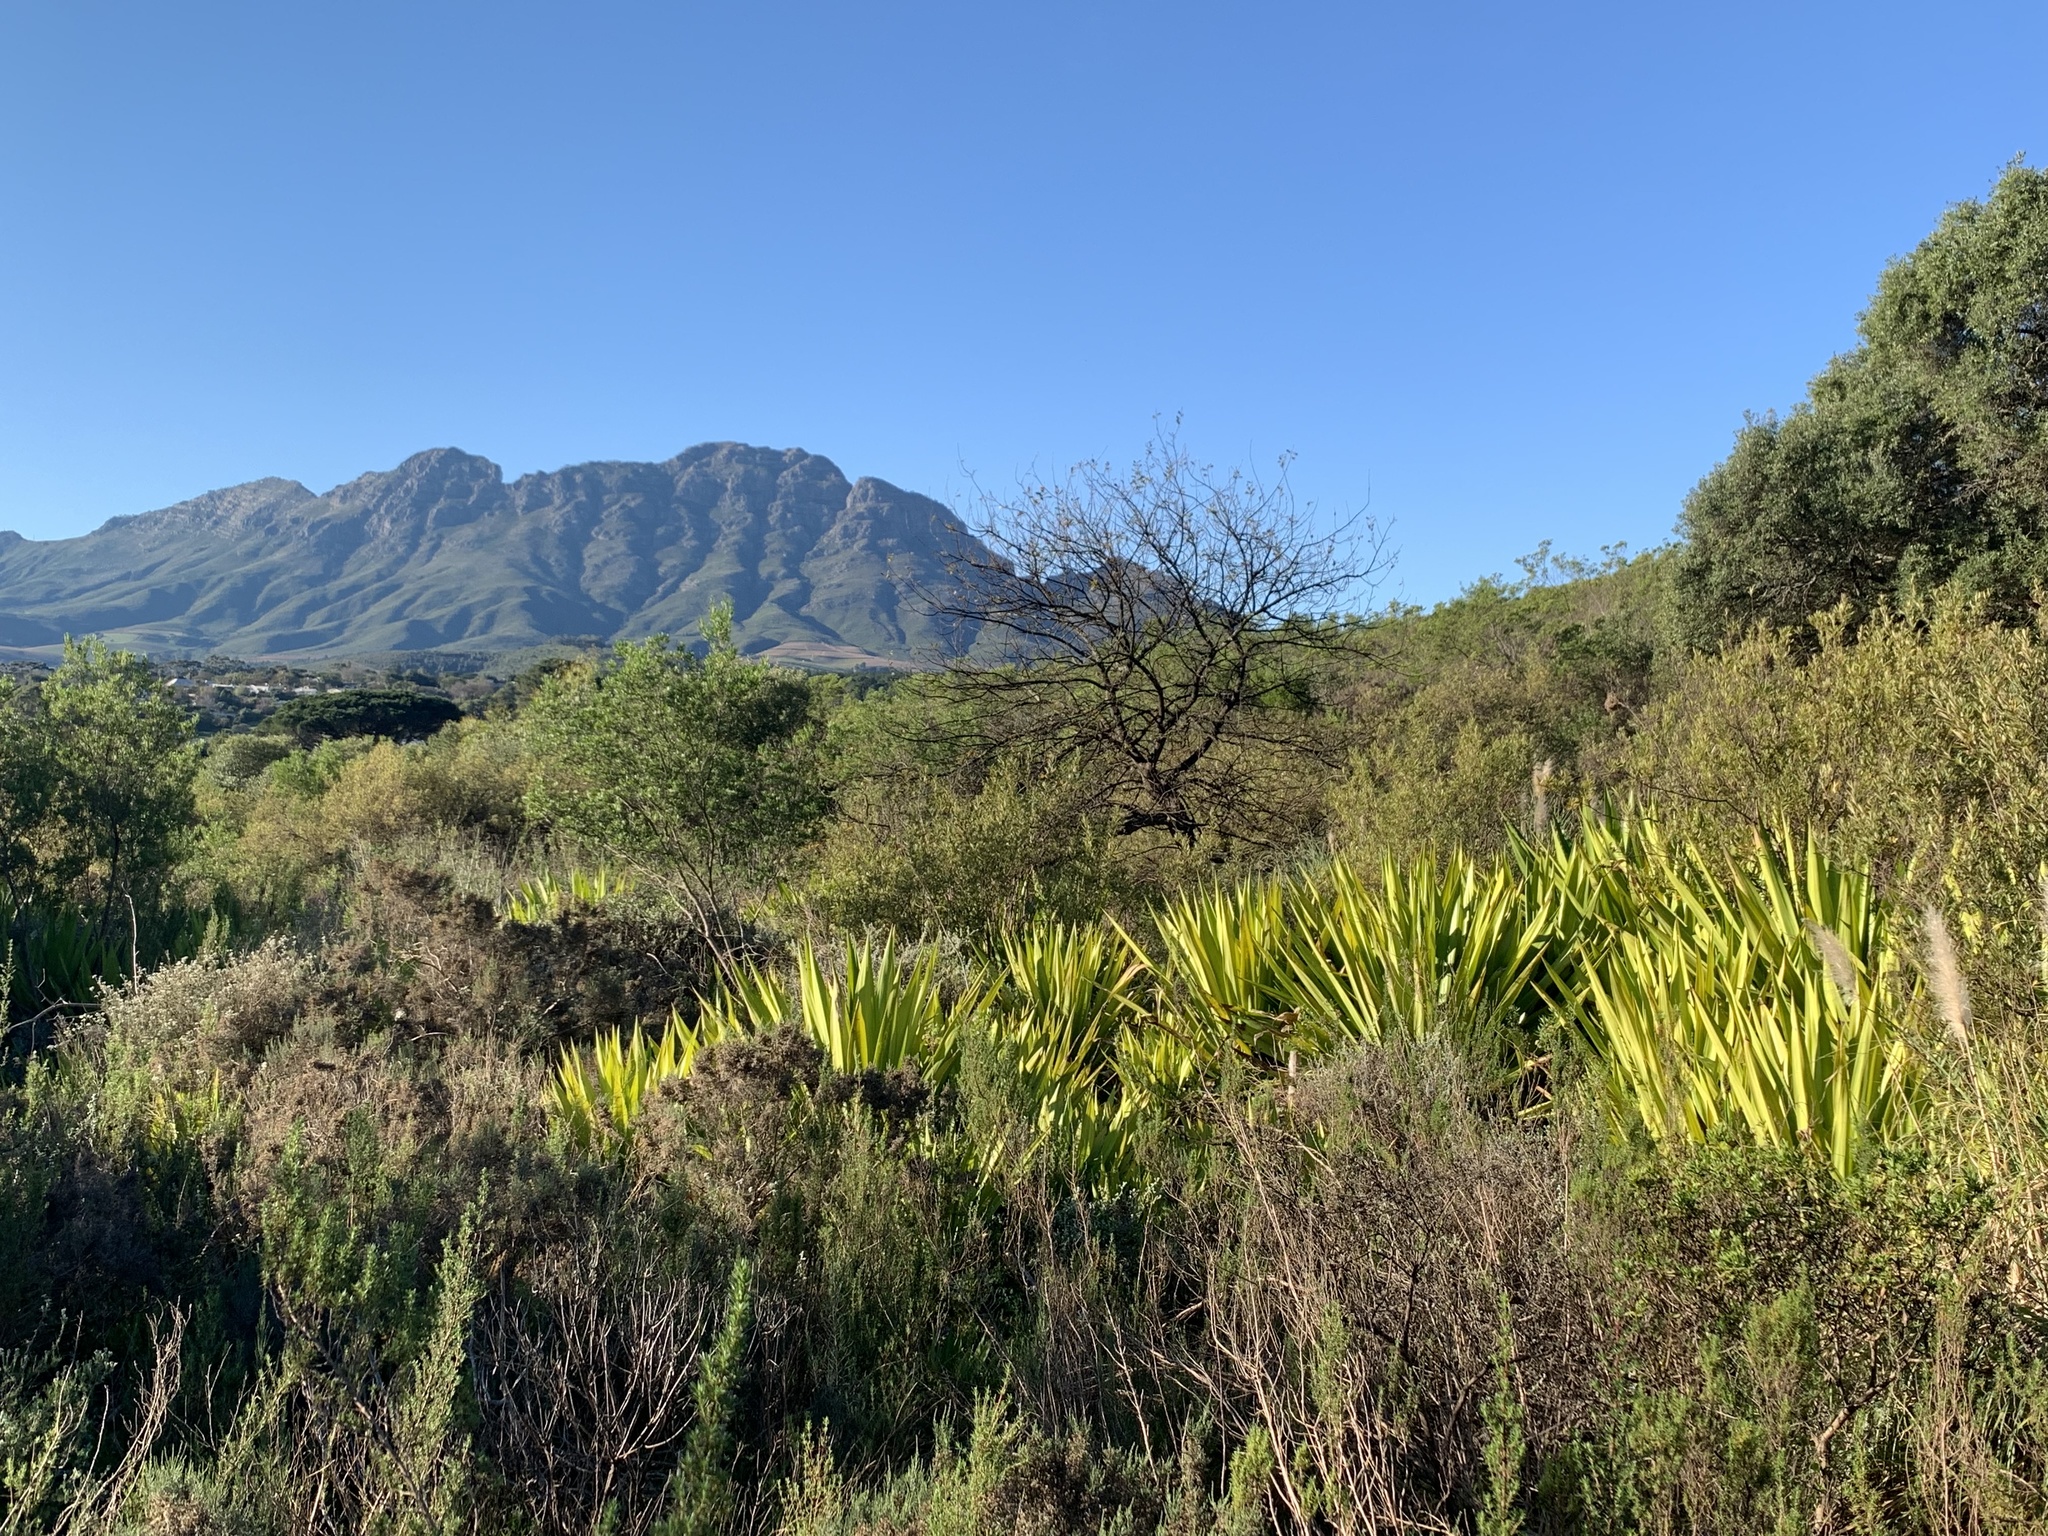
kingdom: Plantae
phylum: Tracheophyta
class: Liliopsida
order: Asparagales
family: Asparagaceae
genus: Furcraea
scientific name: Furcraea foetida
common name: Mauritius hemp
